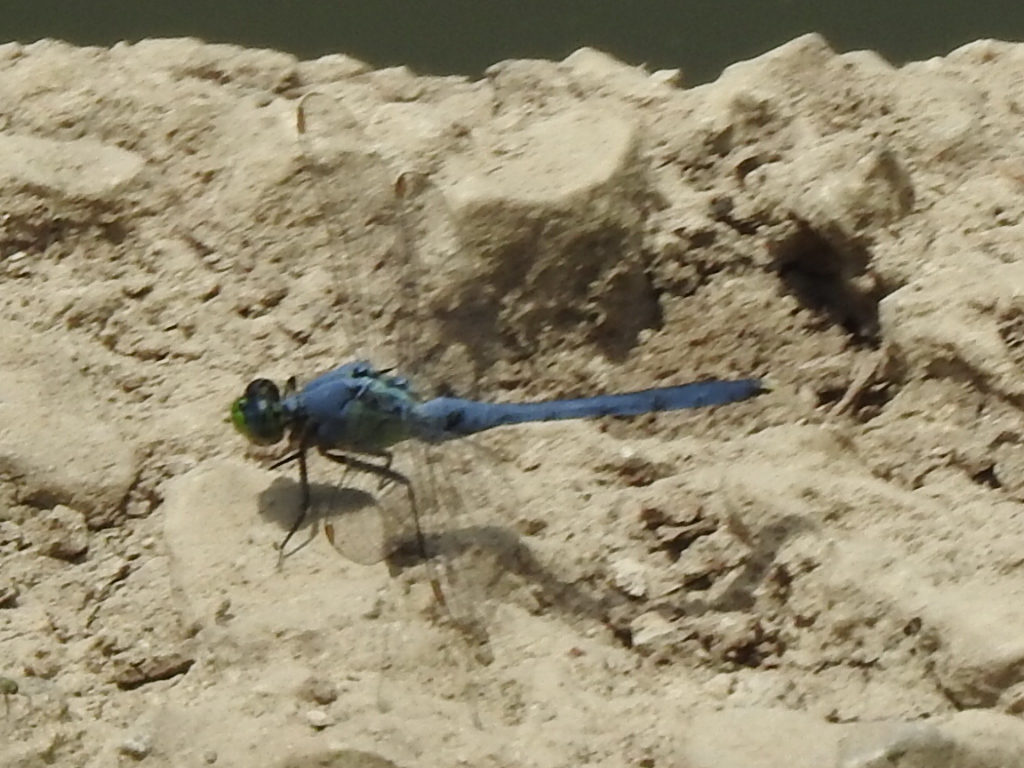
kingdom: Animalia
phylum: Arthropoda
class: Insecta
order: Odonata
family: Libellulidae
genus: Erythemis
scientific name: Erythemis simplicicollis
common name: Eastern pondhawk
